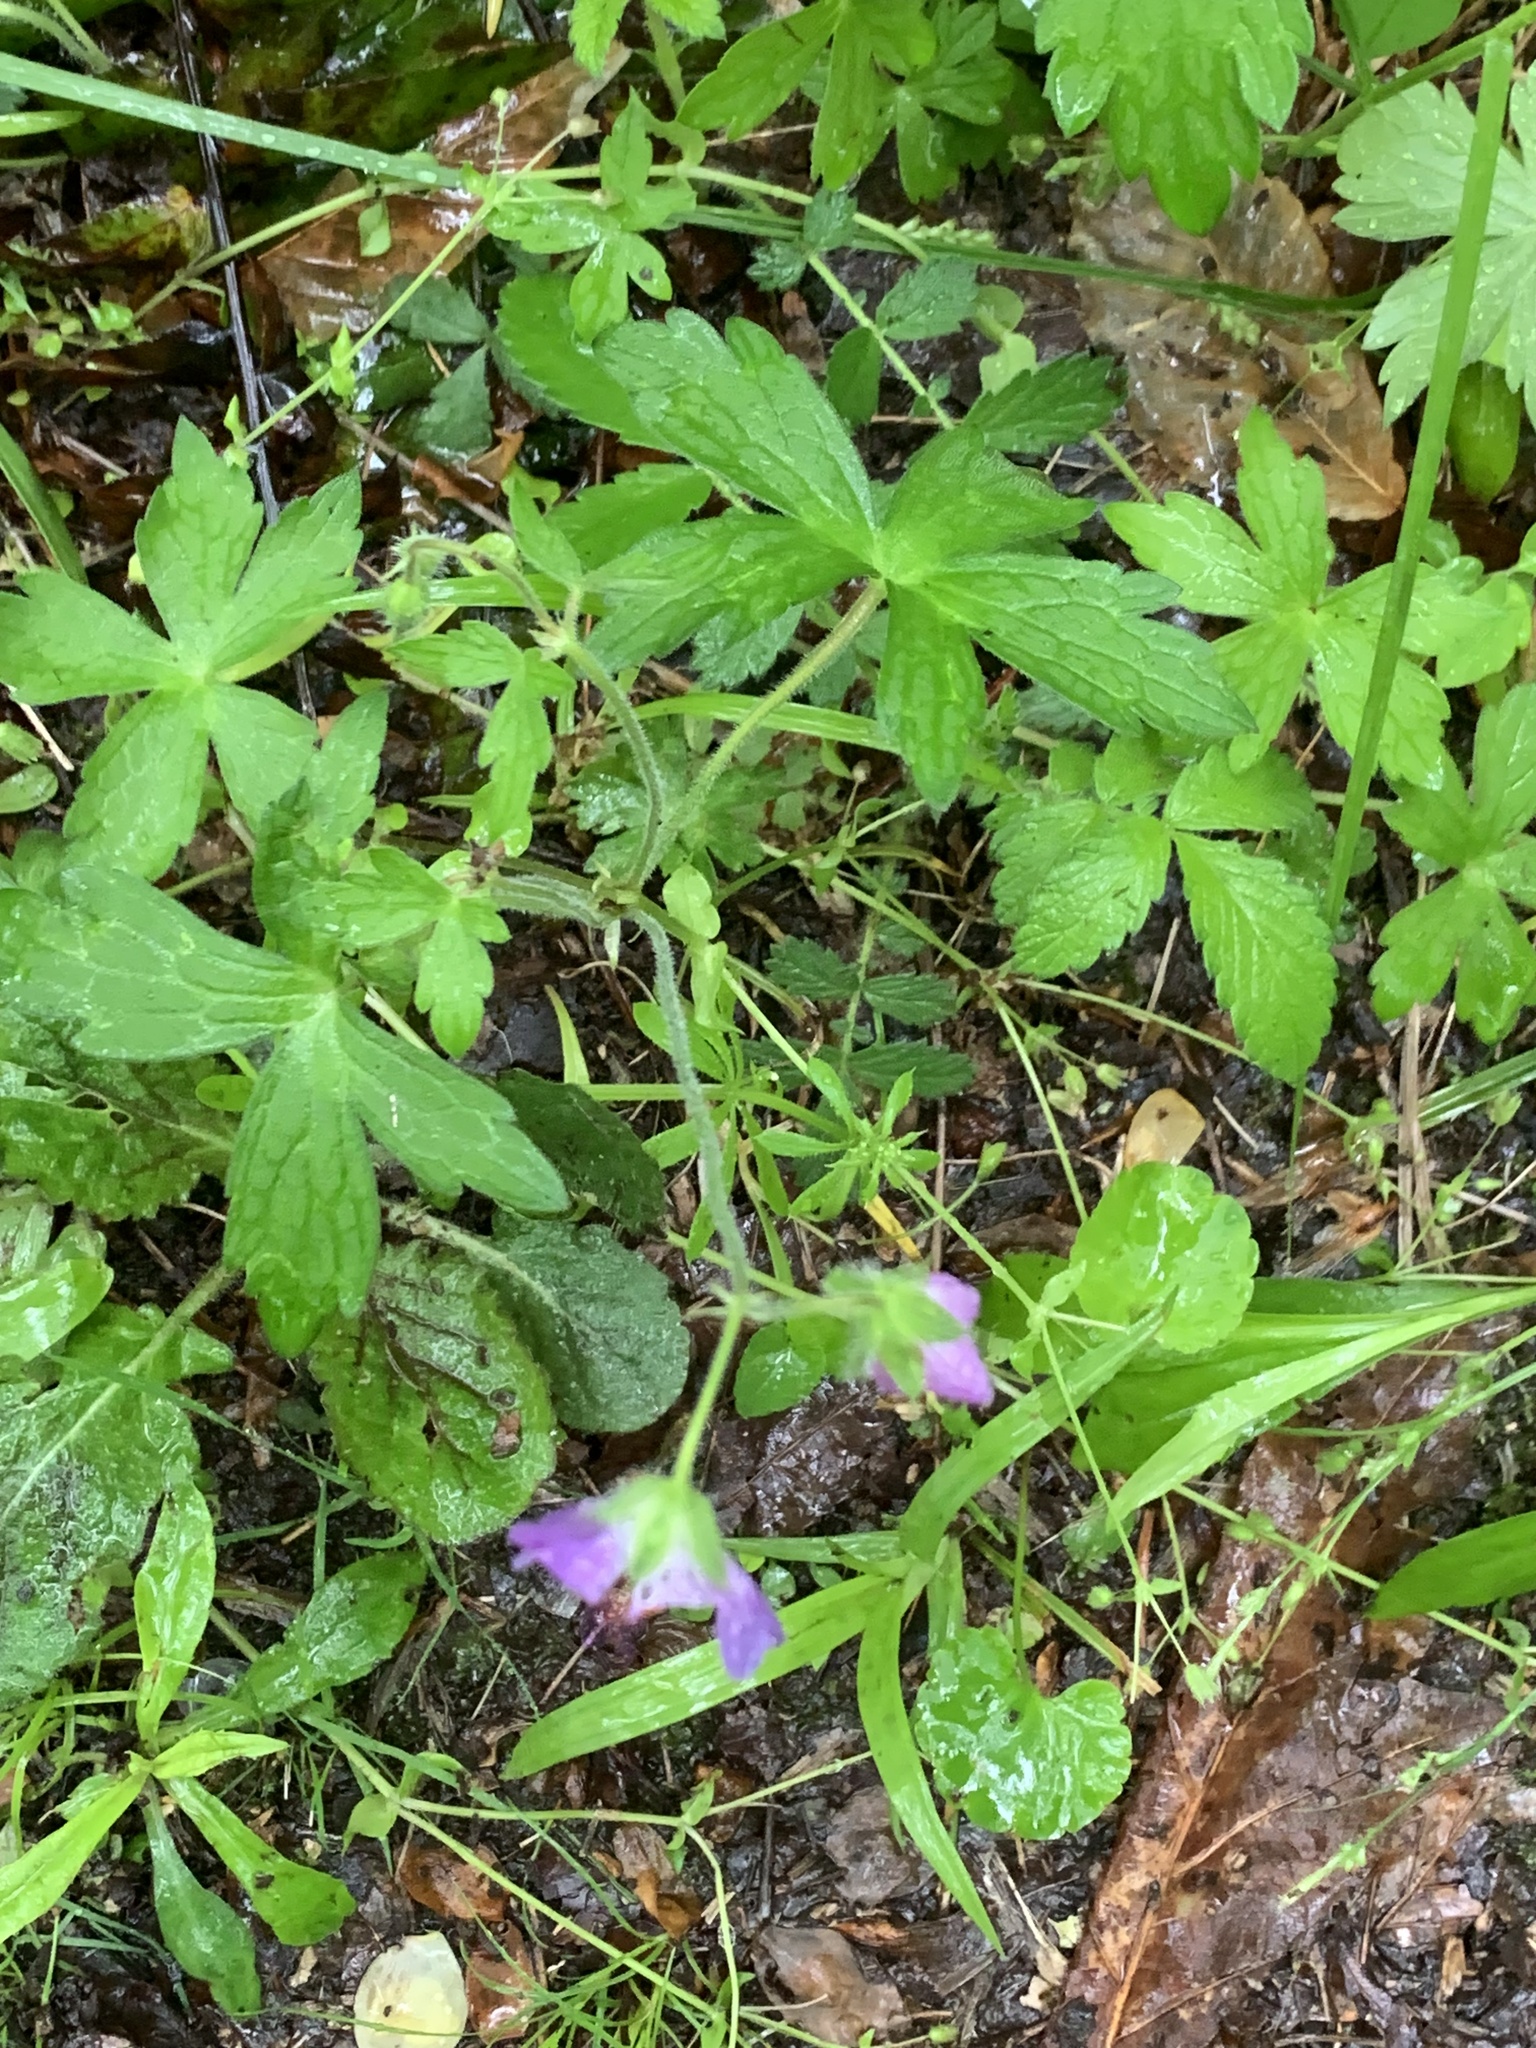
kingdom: Plantae
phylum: Tracheophyta
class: Magnoliopsida
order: Geraniales
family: Geraniaceae
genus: Geranium
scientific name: Geranium maculatum
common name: Spotted geranium
